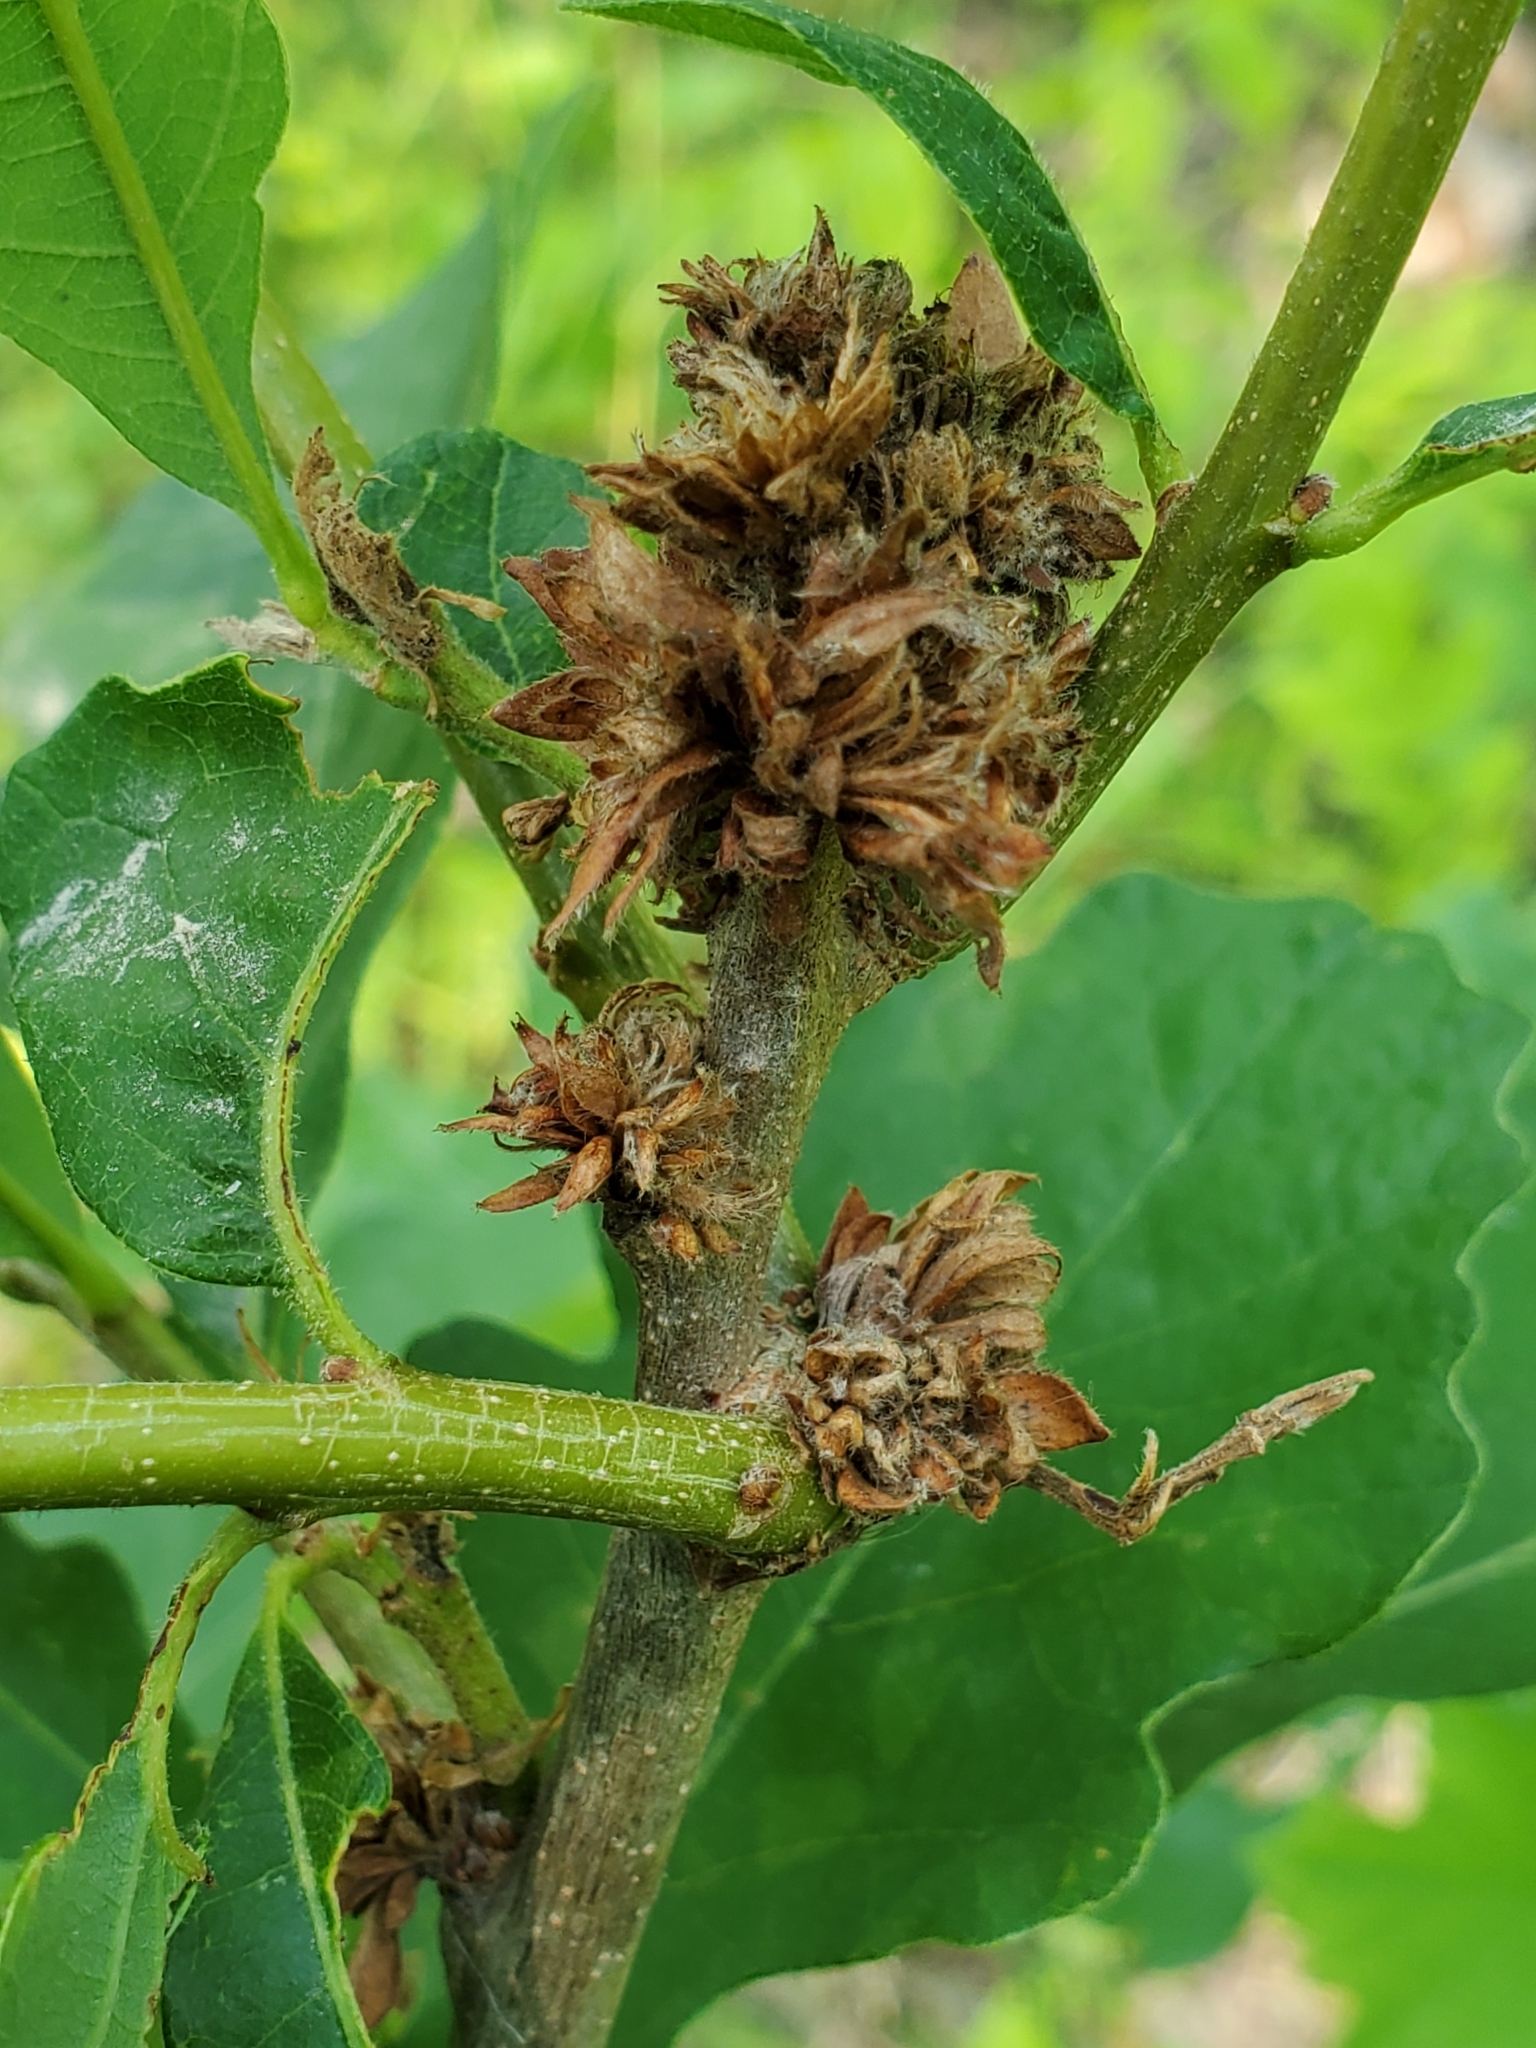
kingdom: Animalia
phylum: Arthropoda
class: Insecta
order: Hymenoptera
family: Cynipidae
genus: Andricus
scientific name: Andricus
